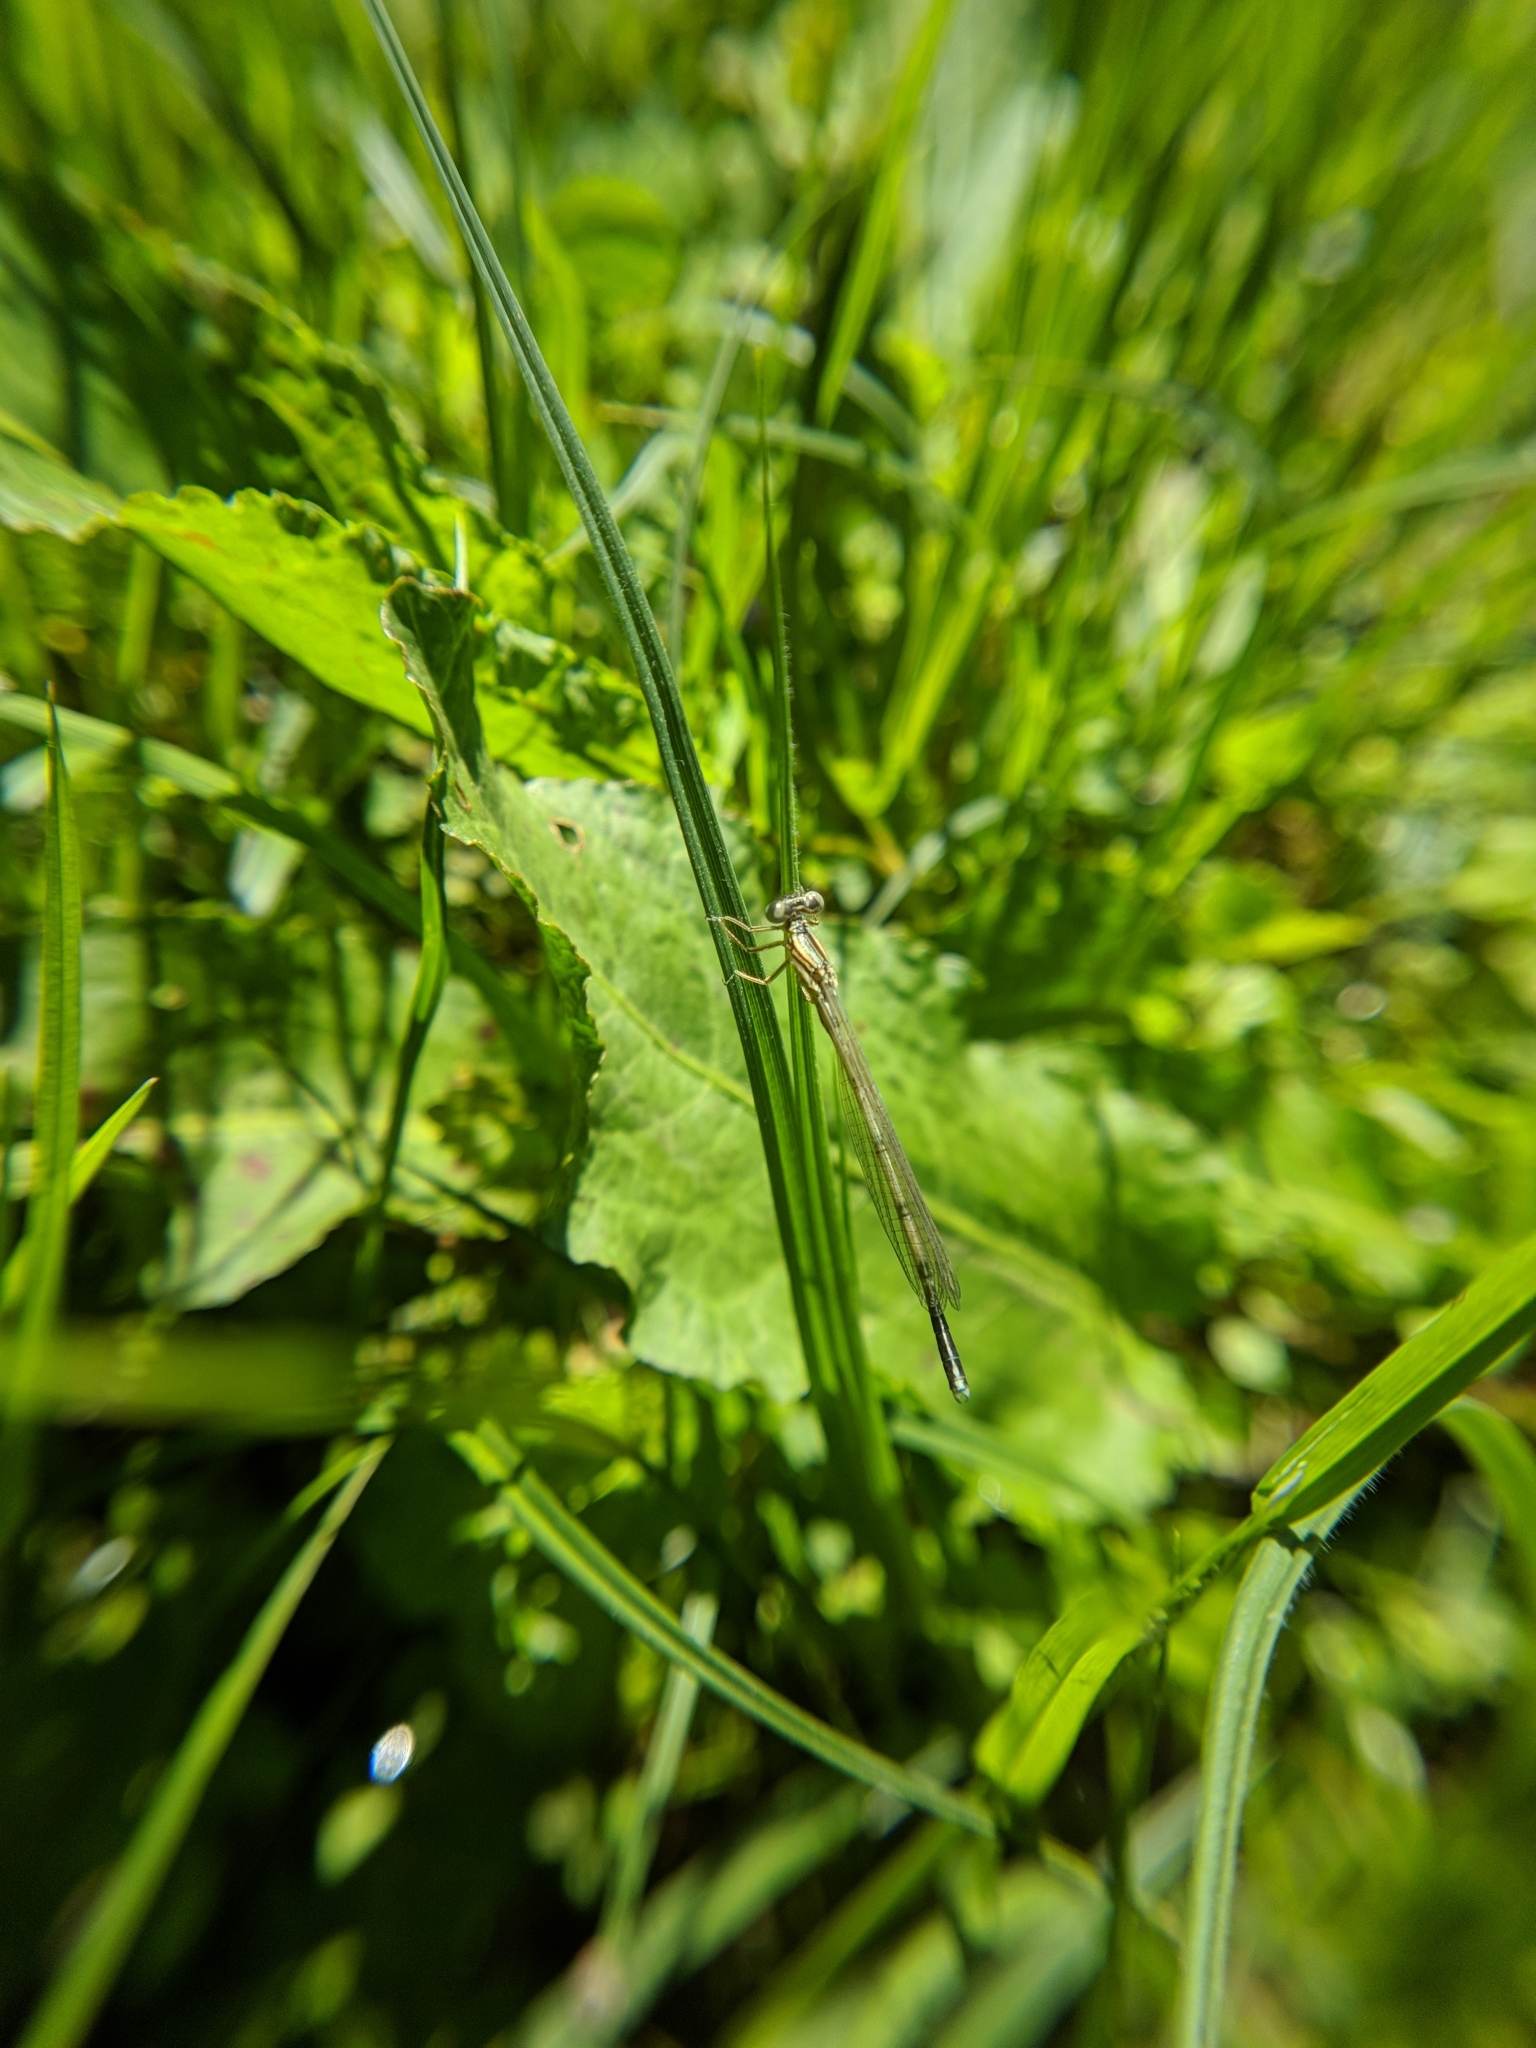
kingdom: Animalia
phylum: Arthropoda
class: Insecta
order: Odonata
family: Platycnemididae
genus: Platycnemis
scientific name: Platycnemis pennipes
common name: White-legged damselfly
